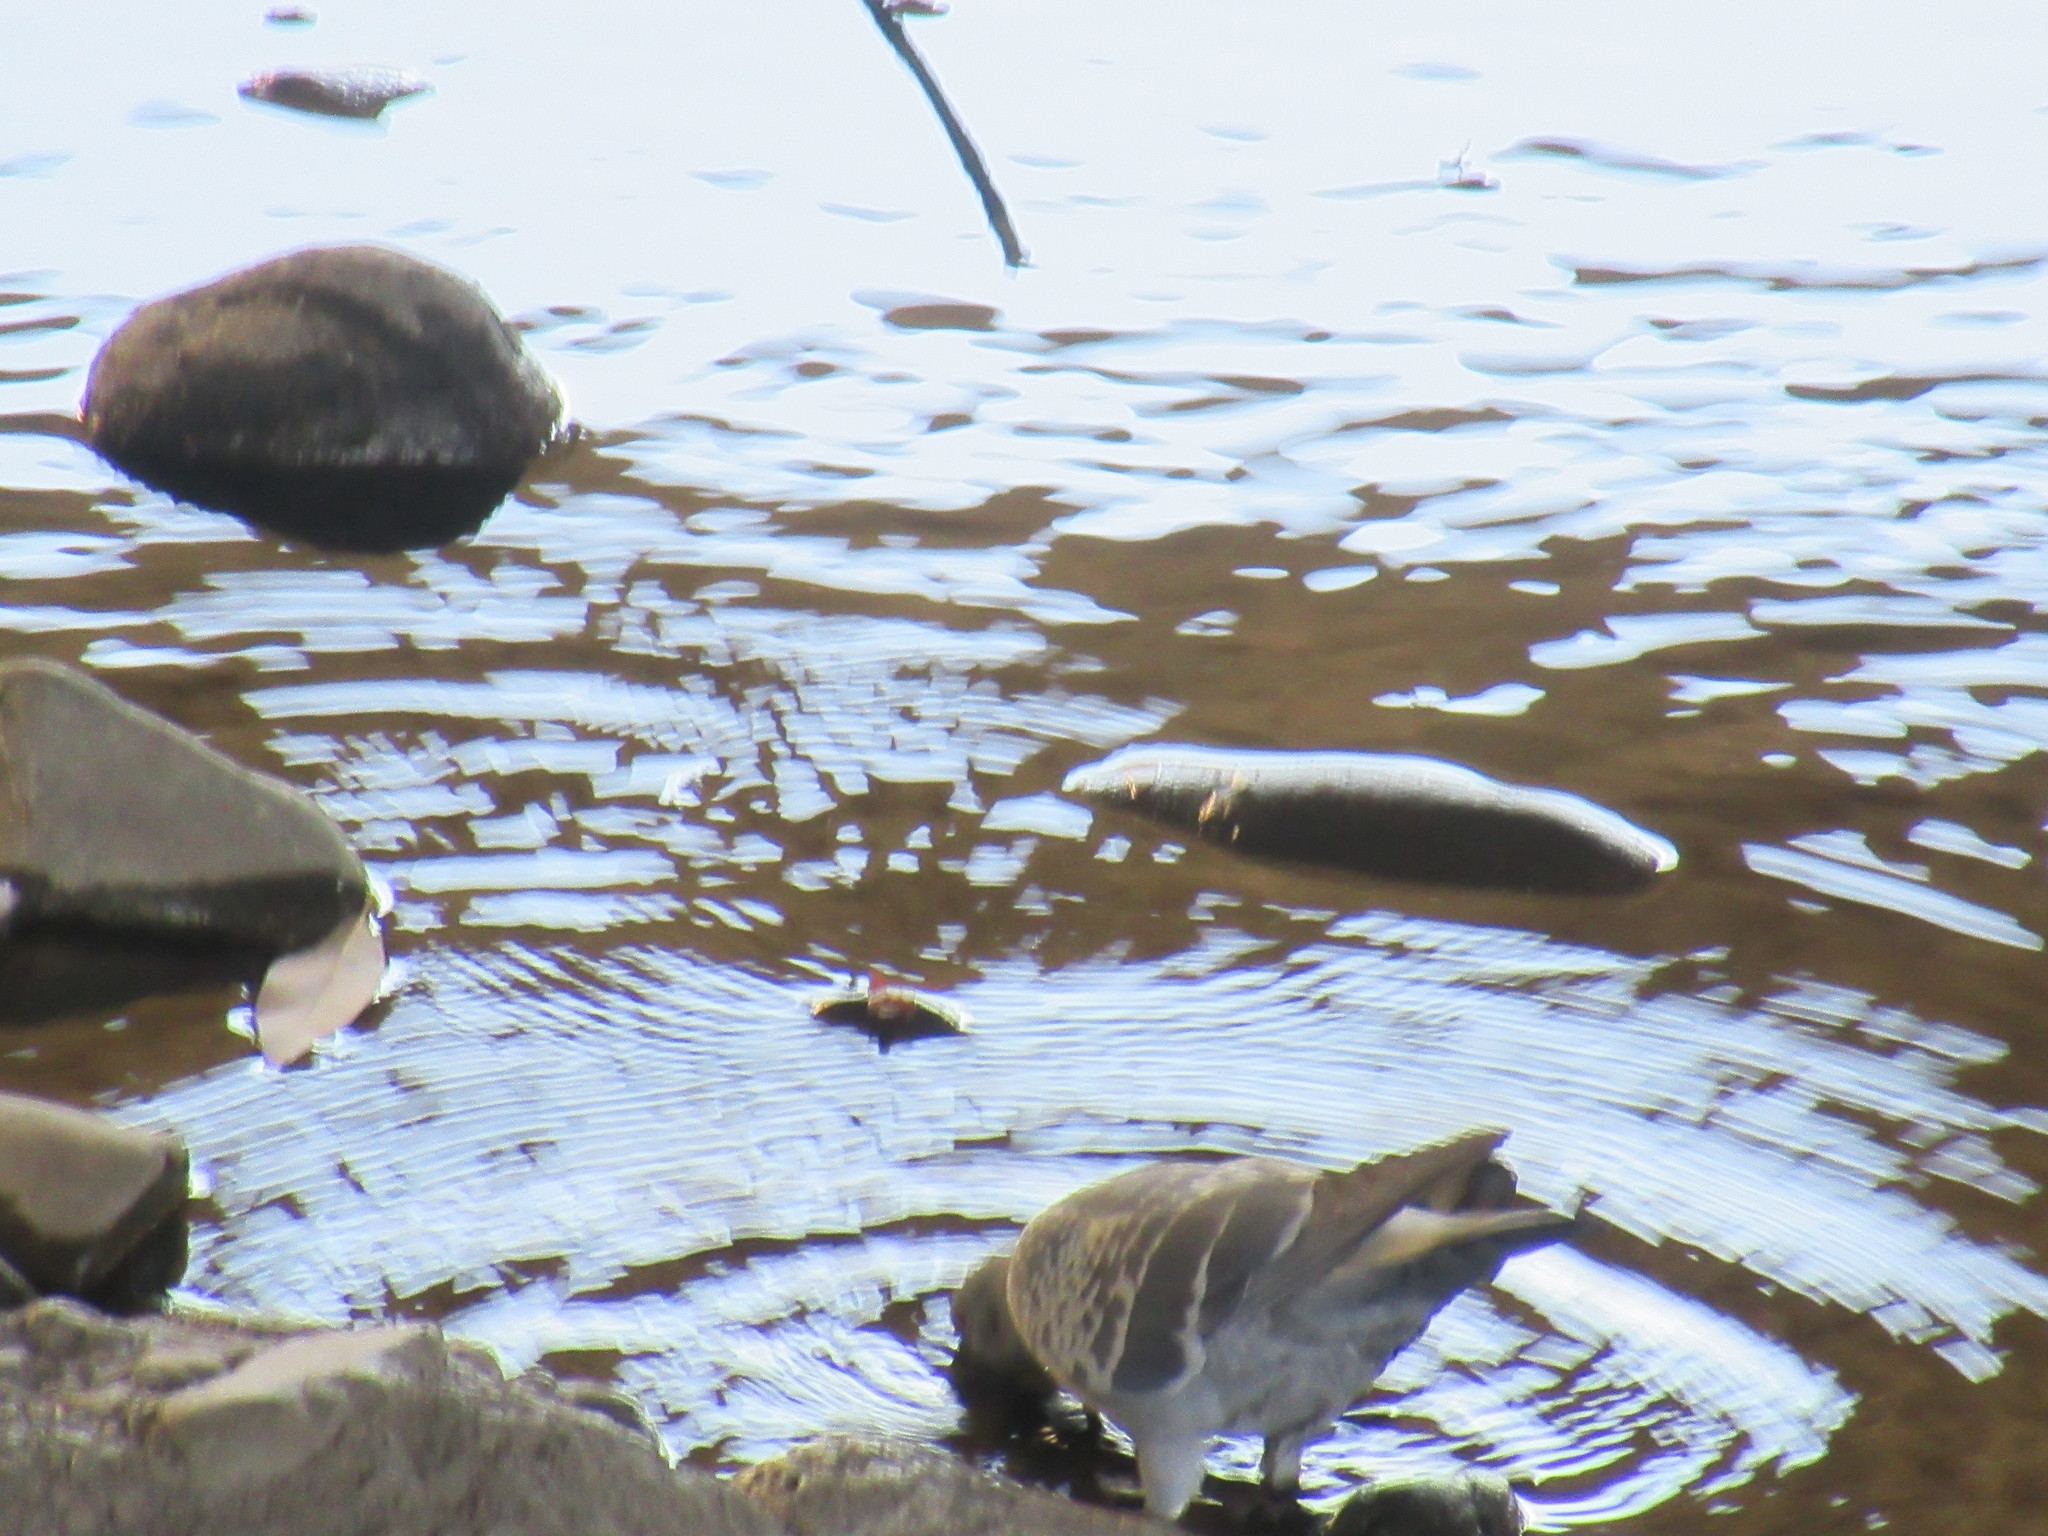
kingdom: Animalia
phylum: Chordata
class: Aves
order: Columbiformes
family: Columbidae
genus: Columba
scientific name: Columba livia
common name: Rock pigeon
